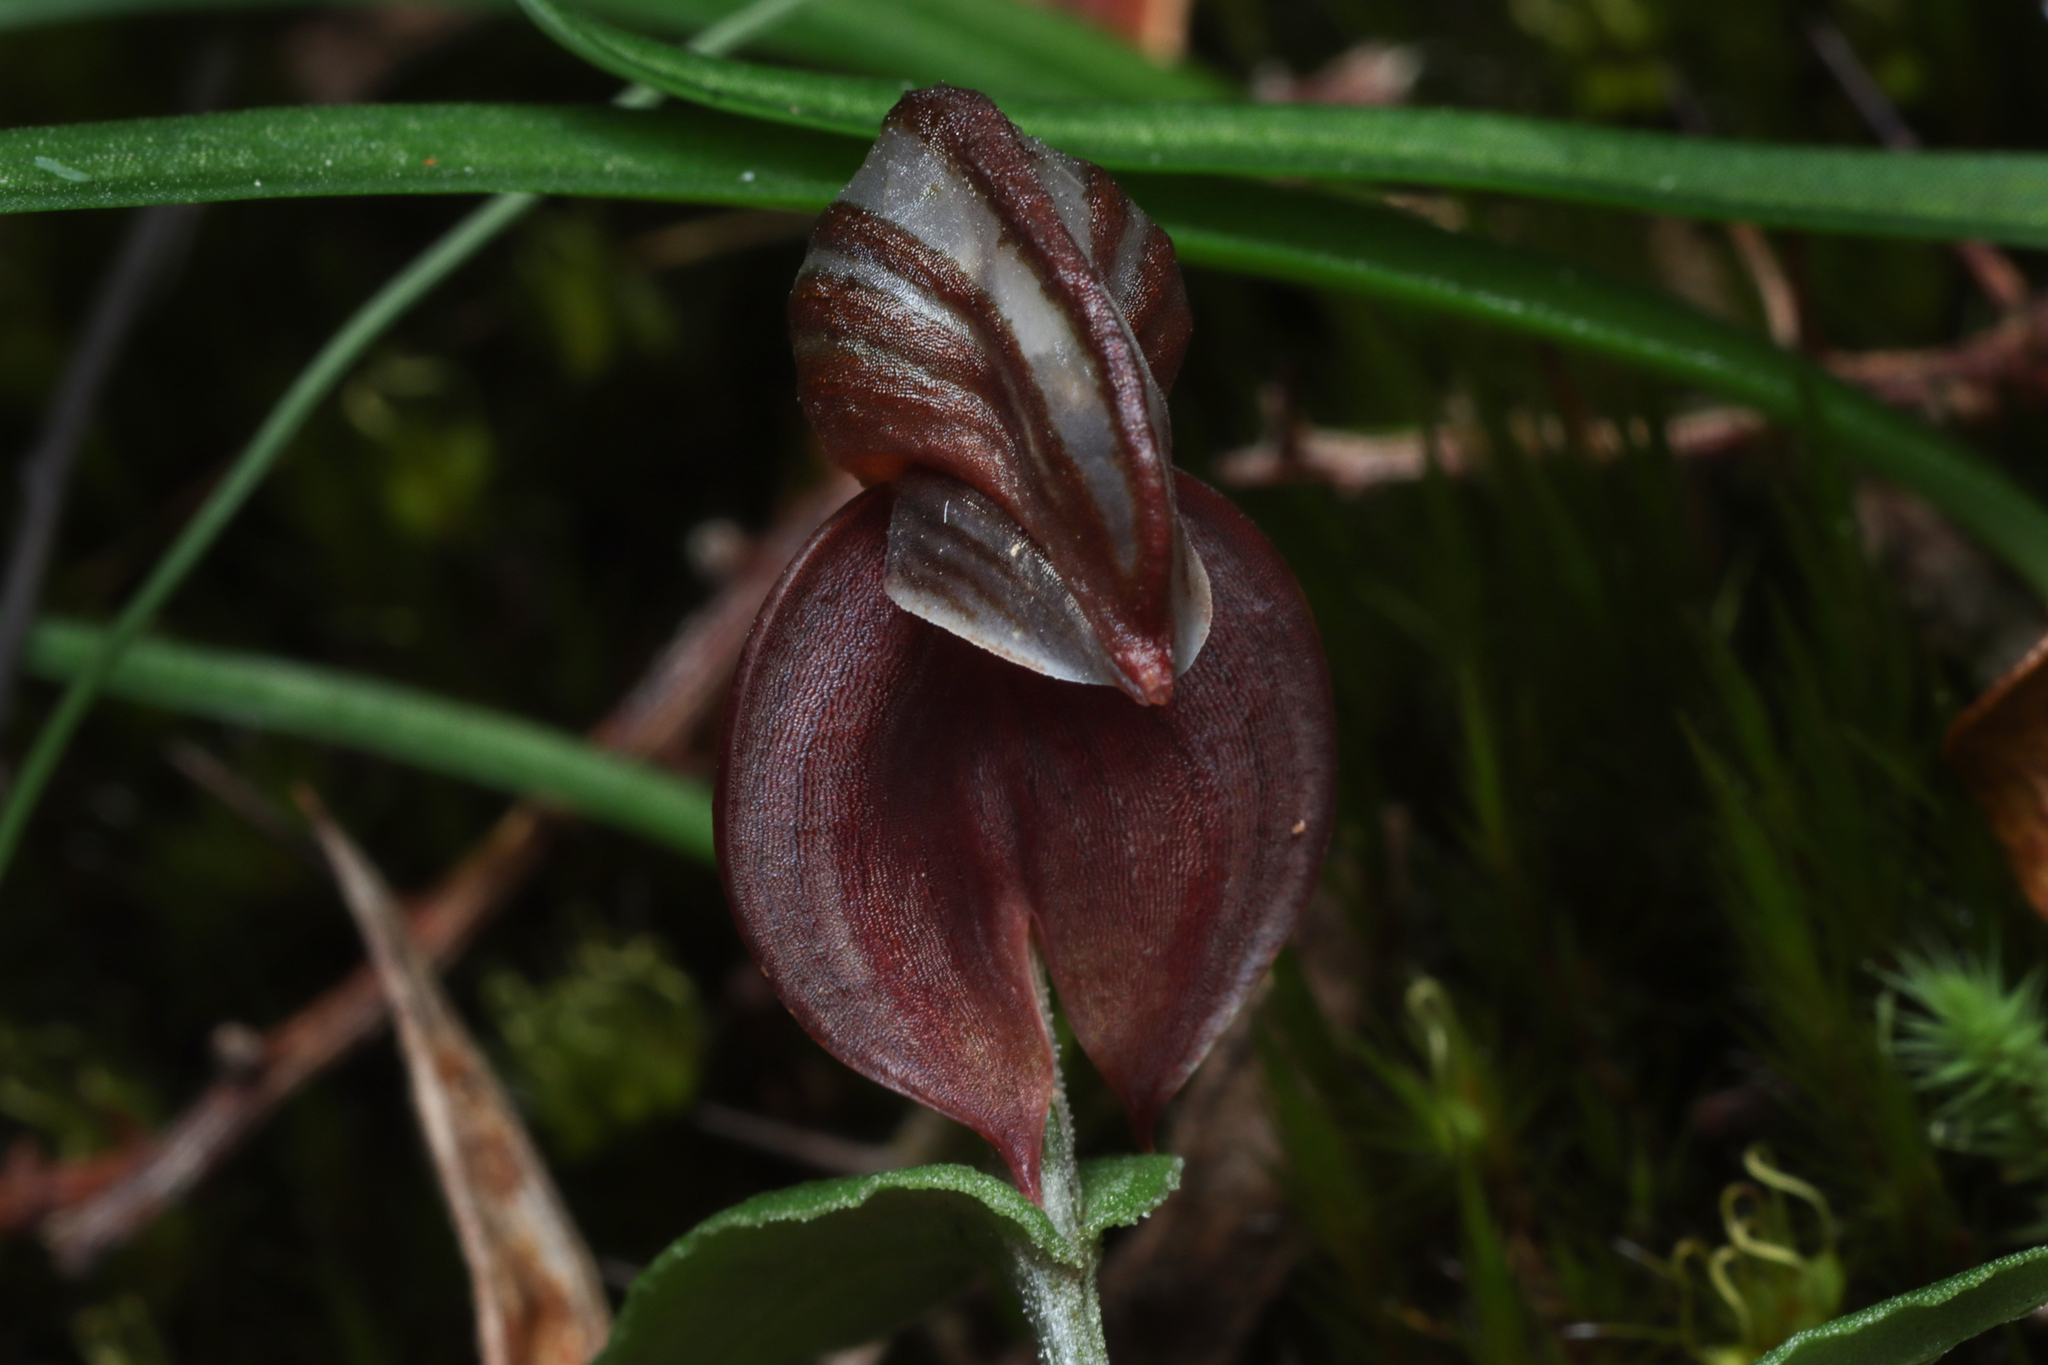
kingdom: Plantae
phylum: Tracheophyta
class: Liliopsida
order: Asparagales
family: Orchidaceae
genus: Pterostylis
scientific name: Pterostylis sanguinea
